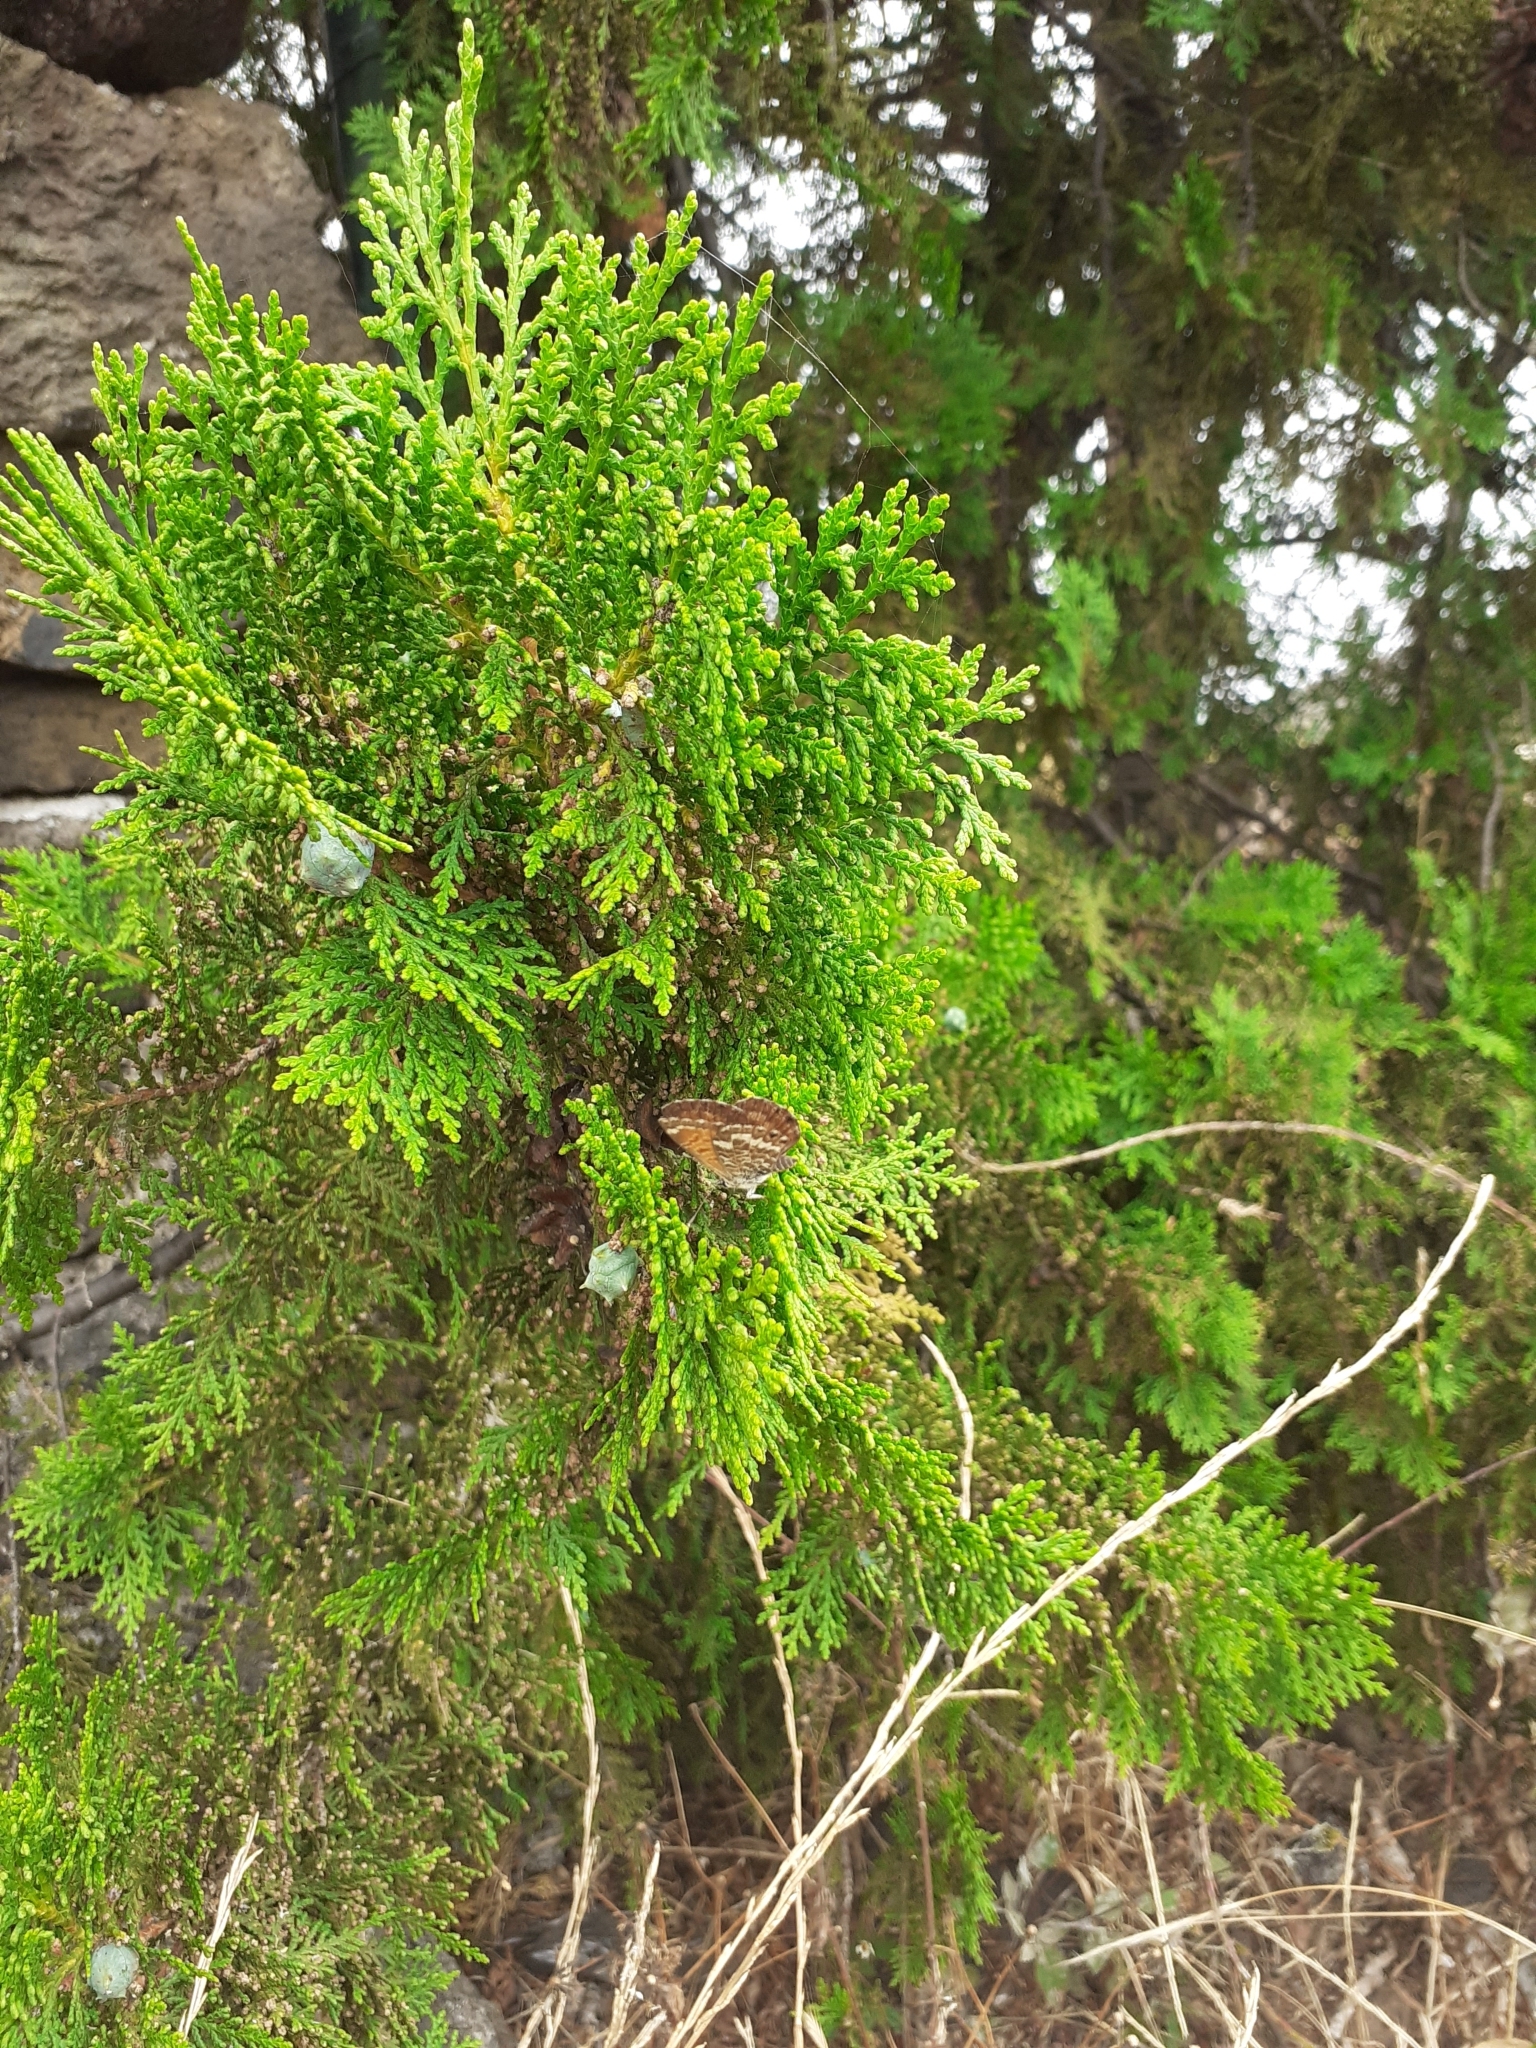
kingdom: Animalia
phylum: Arthropoda
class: Insecta
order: Lepidoptera
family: Lycaenidae
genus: Cyclyrius
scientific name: Cyclyrius webbianus
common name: Canary blue
